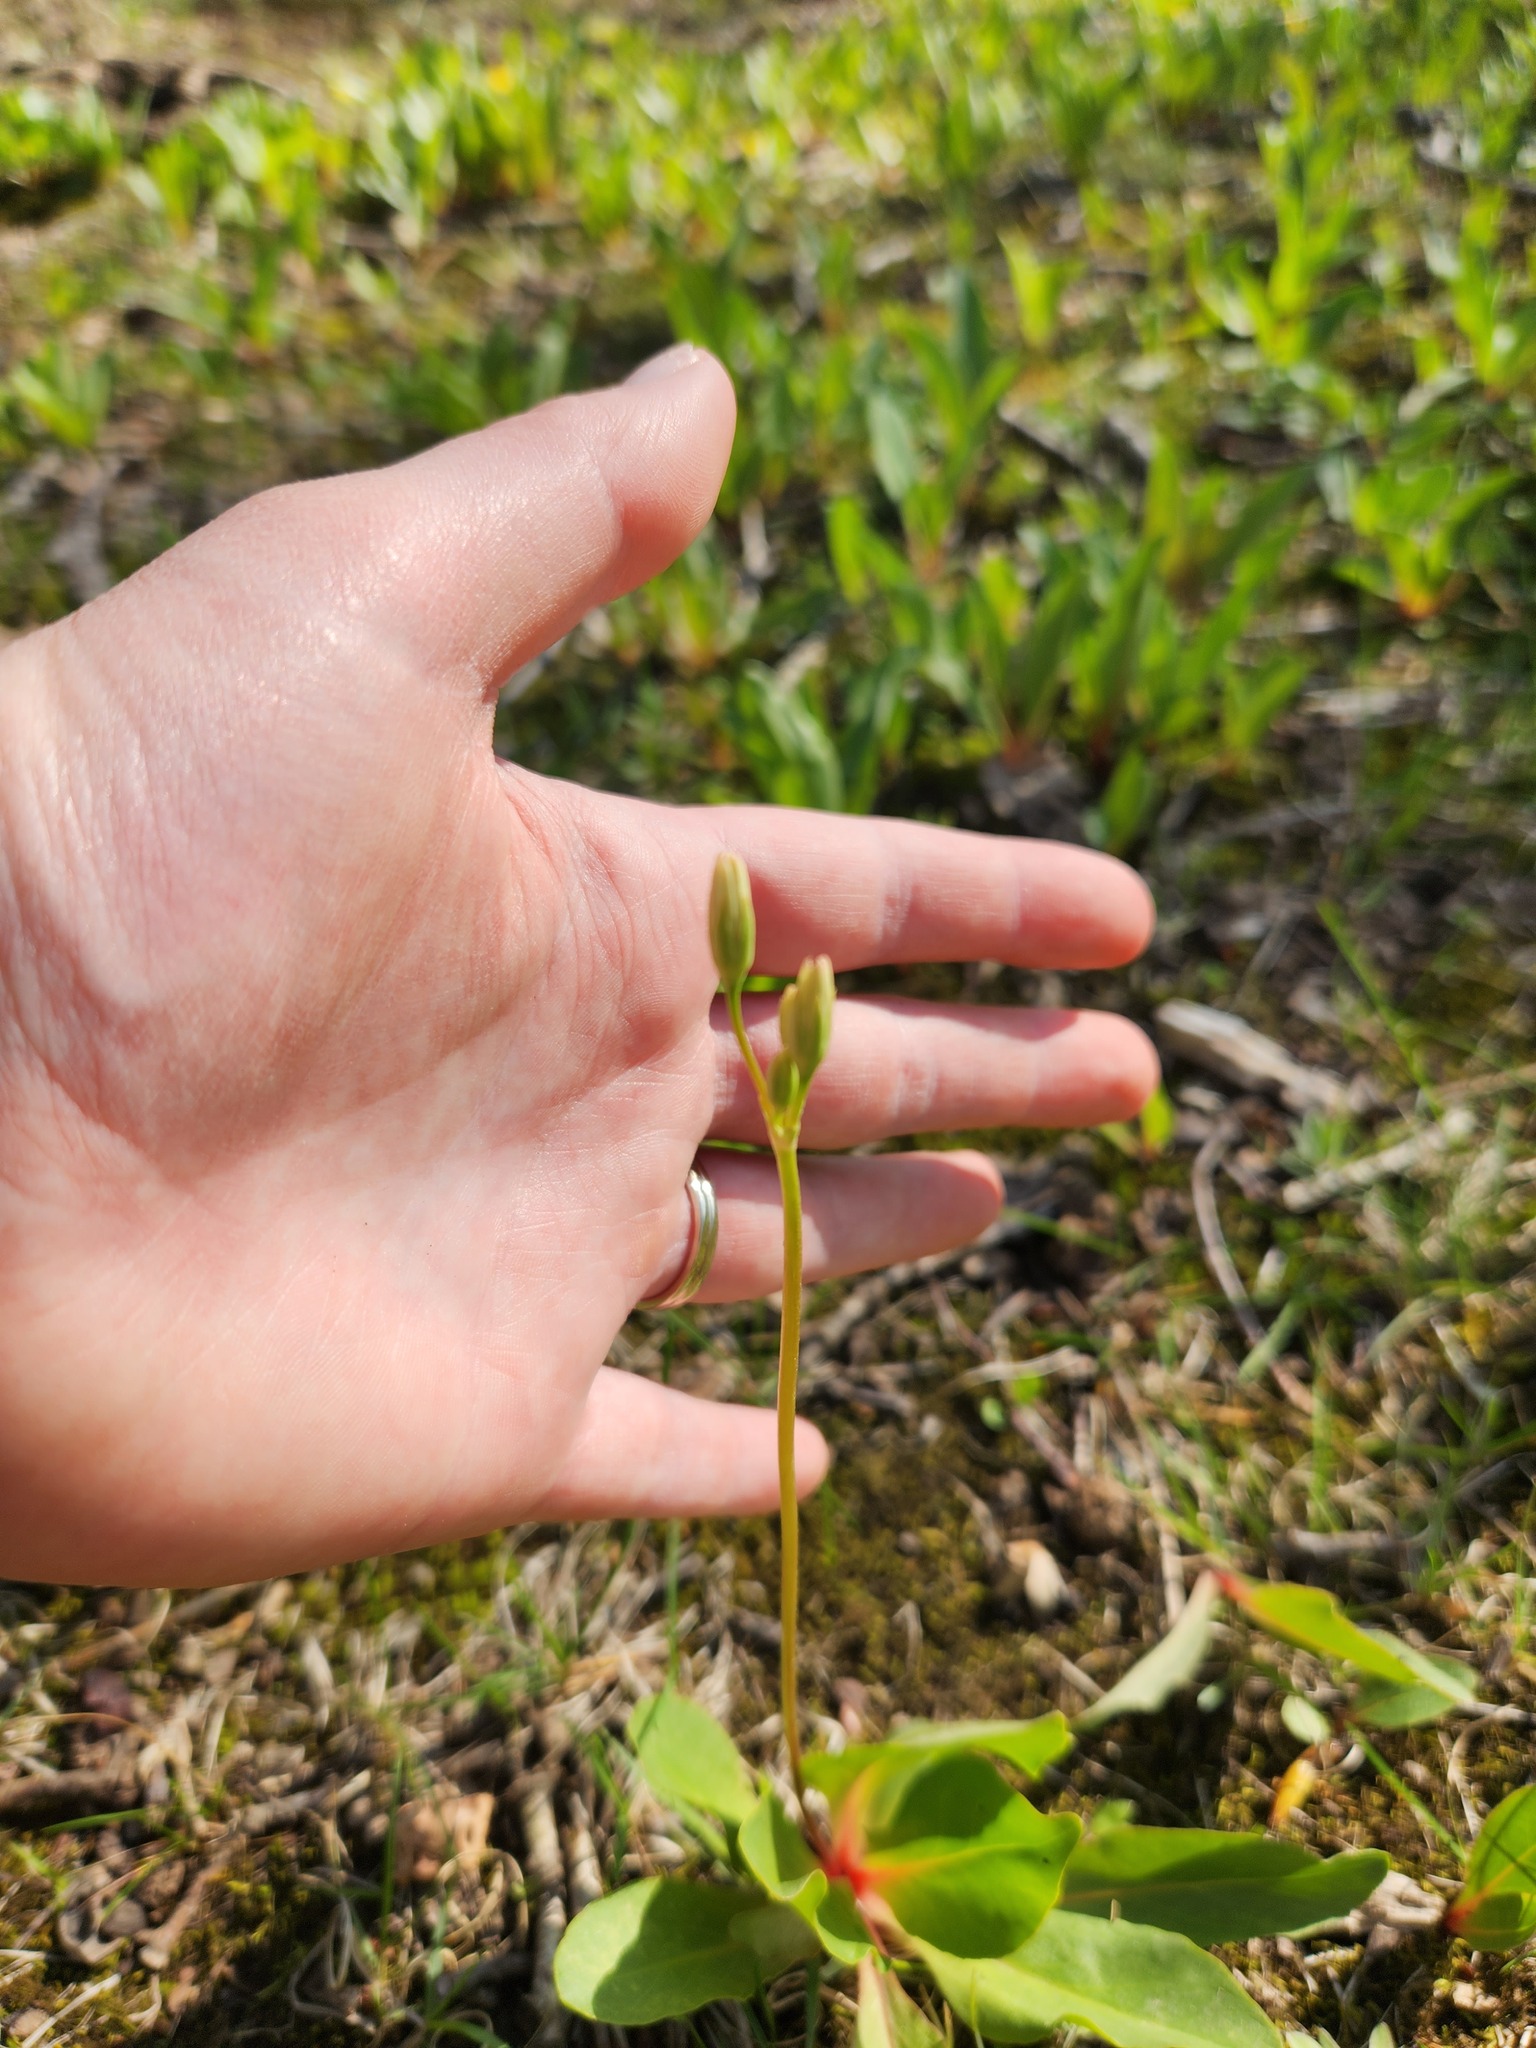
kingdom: Plantae
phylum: Tracheophyta
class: Magnoliopsida
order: Ericales
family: Primulaceae
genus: Dodecatheon
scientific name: Dodecatheon meadia
